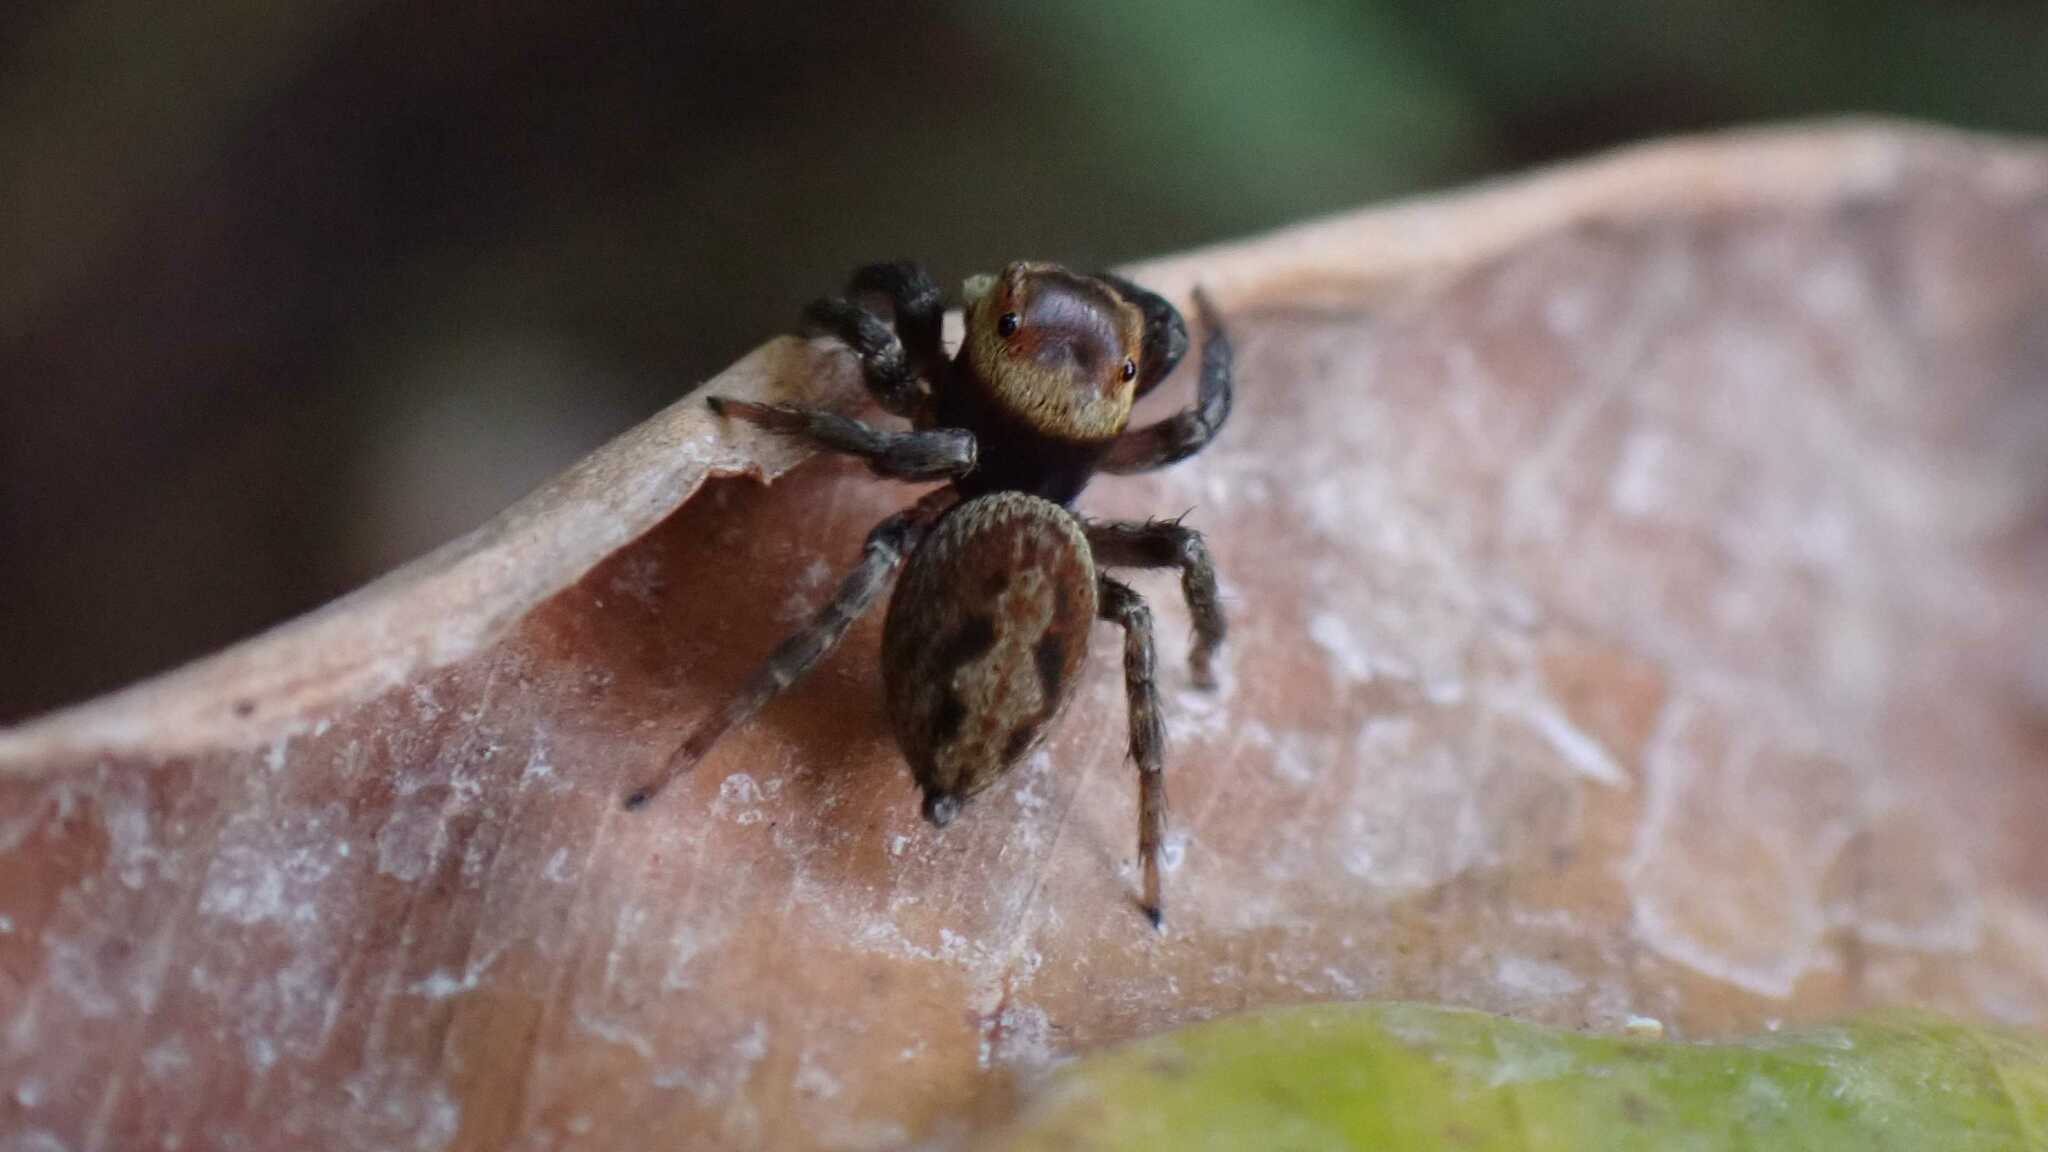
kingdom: Animalia
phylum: Arthropoda
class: Arachnida
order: Araneae
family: Salticidae
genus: Hasarius
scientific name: Hasarius adansoni
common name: Jumping spider
